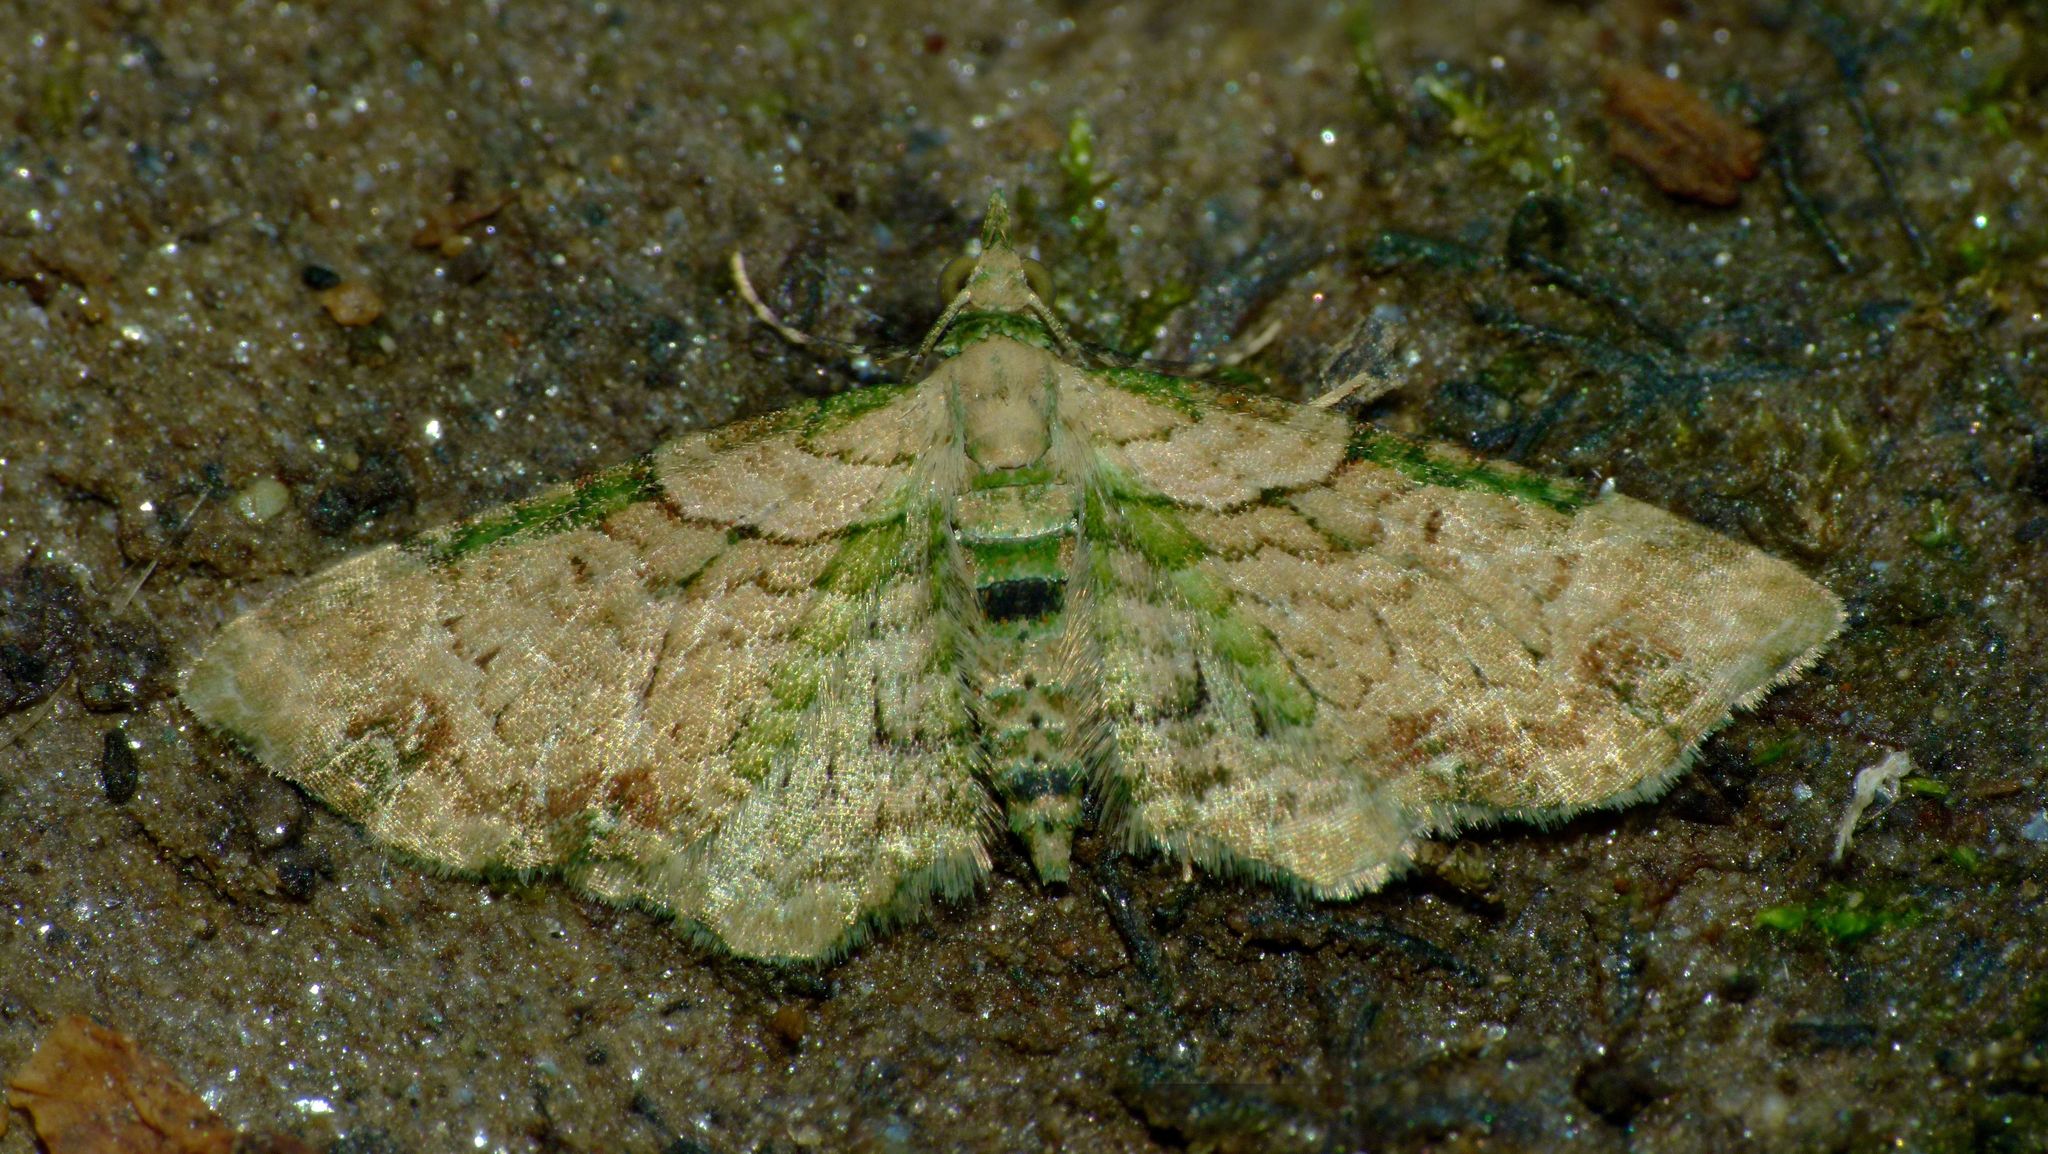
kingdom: Animalia
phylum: Arthropoda
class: Insecta
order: Lepidoptera
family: Geometridae
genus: Chloroclystis
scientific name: Chloroclystis
